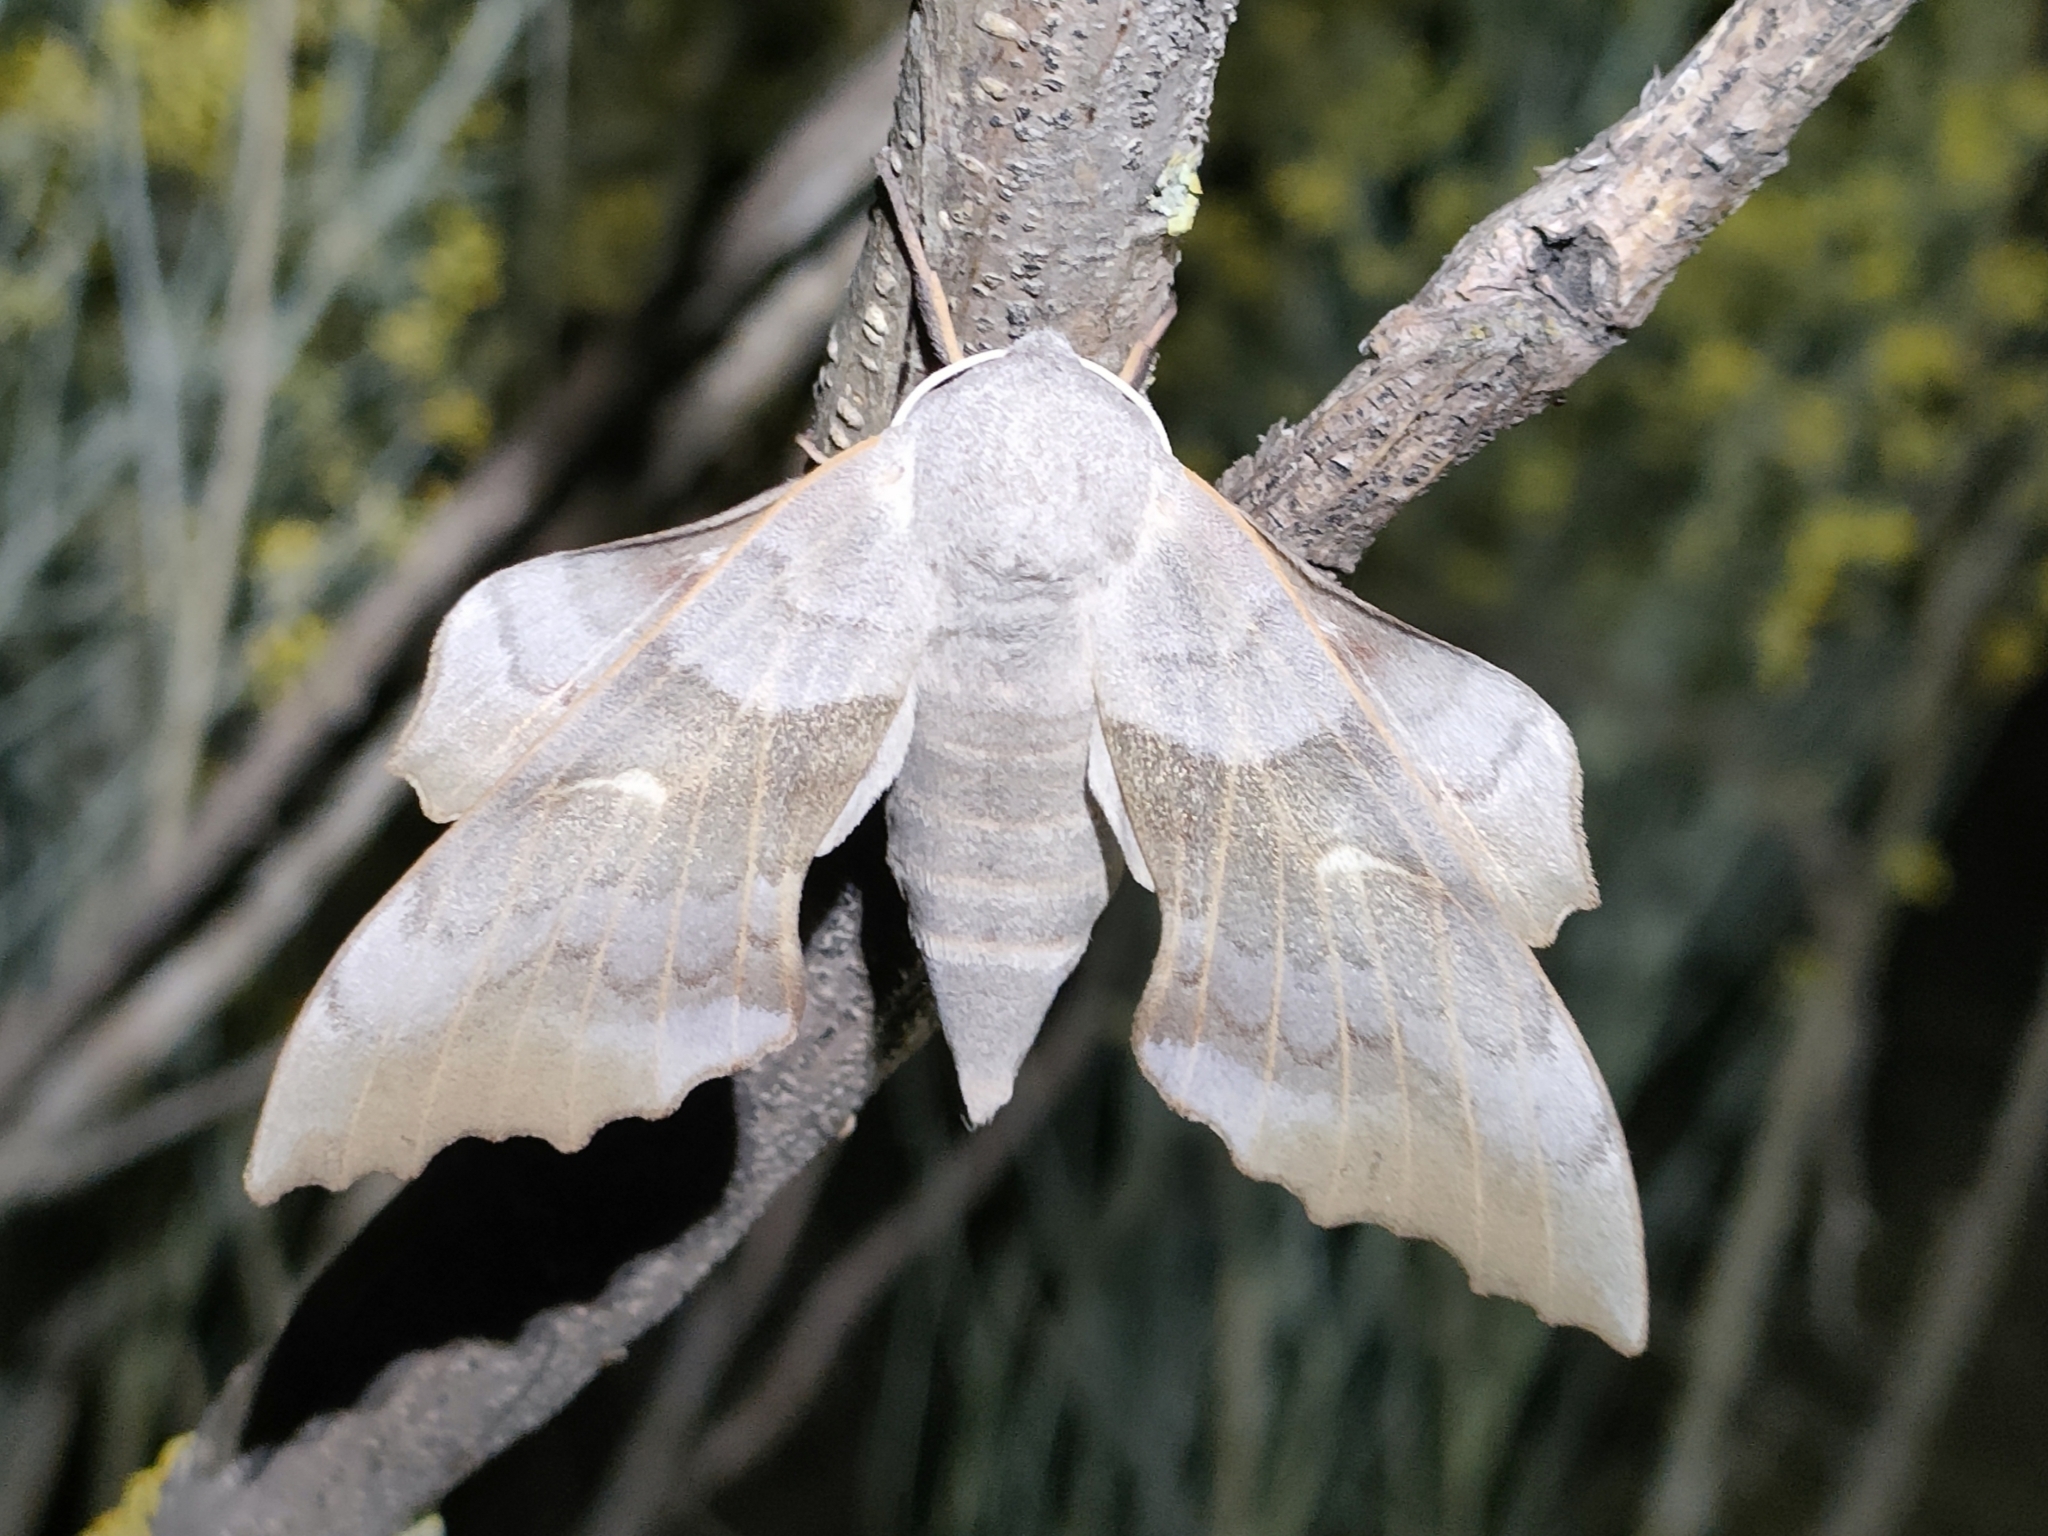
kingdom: Animalia
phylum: Arthropoda
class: Insecta
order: Lepidoptera
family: Sphingidae
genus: Laothoe
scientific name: Laothoe populi
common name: Poplar hawk-moth
